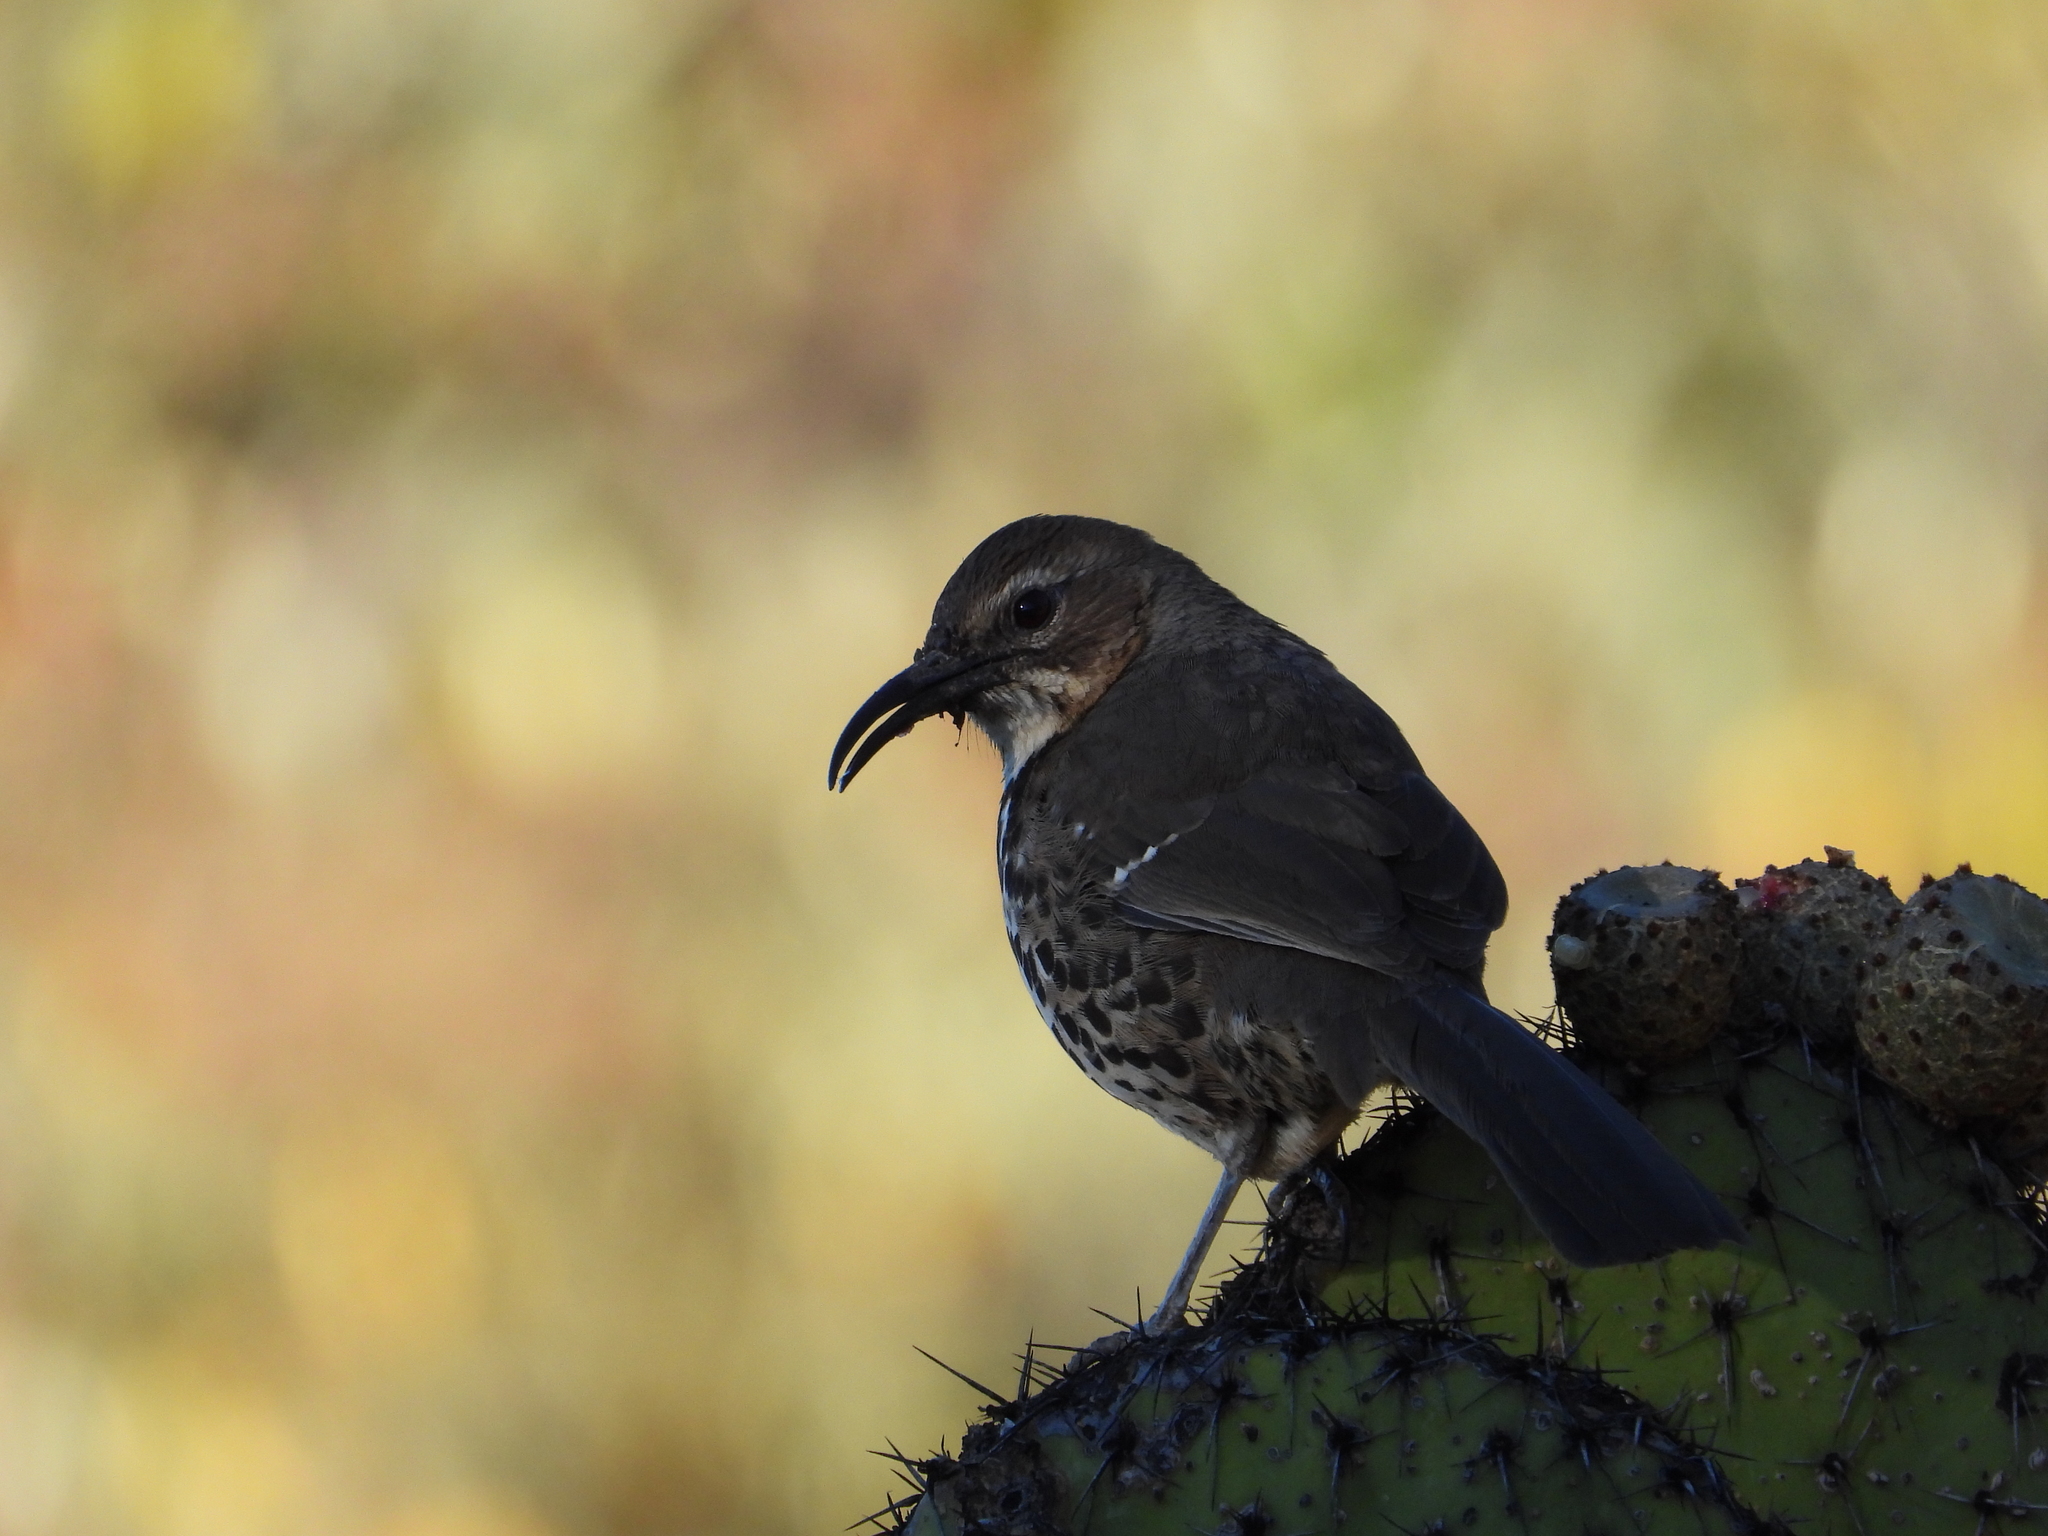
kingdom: Animalia
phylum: Chordata
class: Aves
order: Passeriformes
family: Mimidae
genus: Toxostoma
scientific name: Toxostoma ocellatum
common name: Ocellated thrasher
